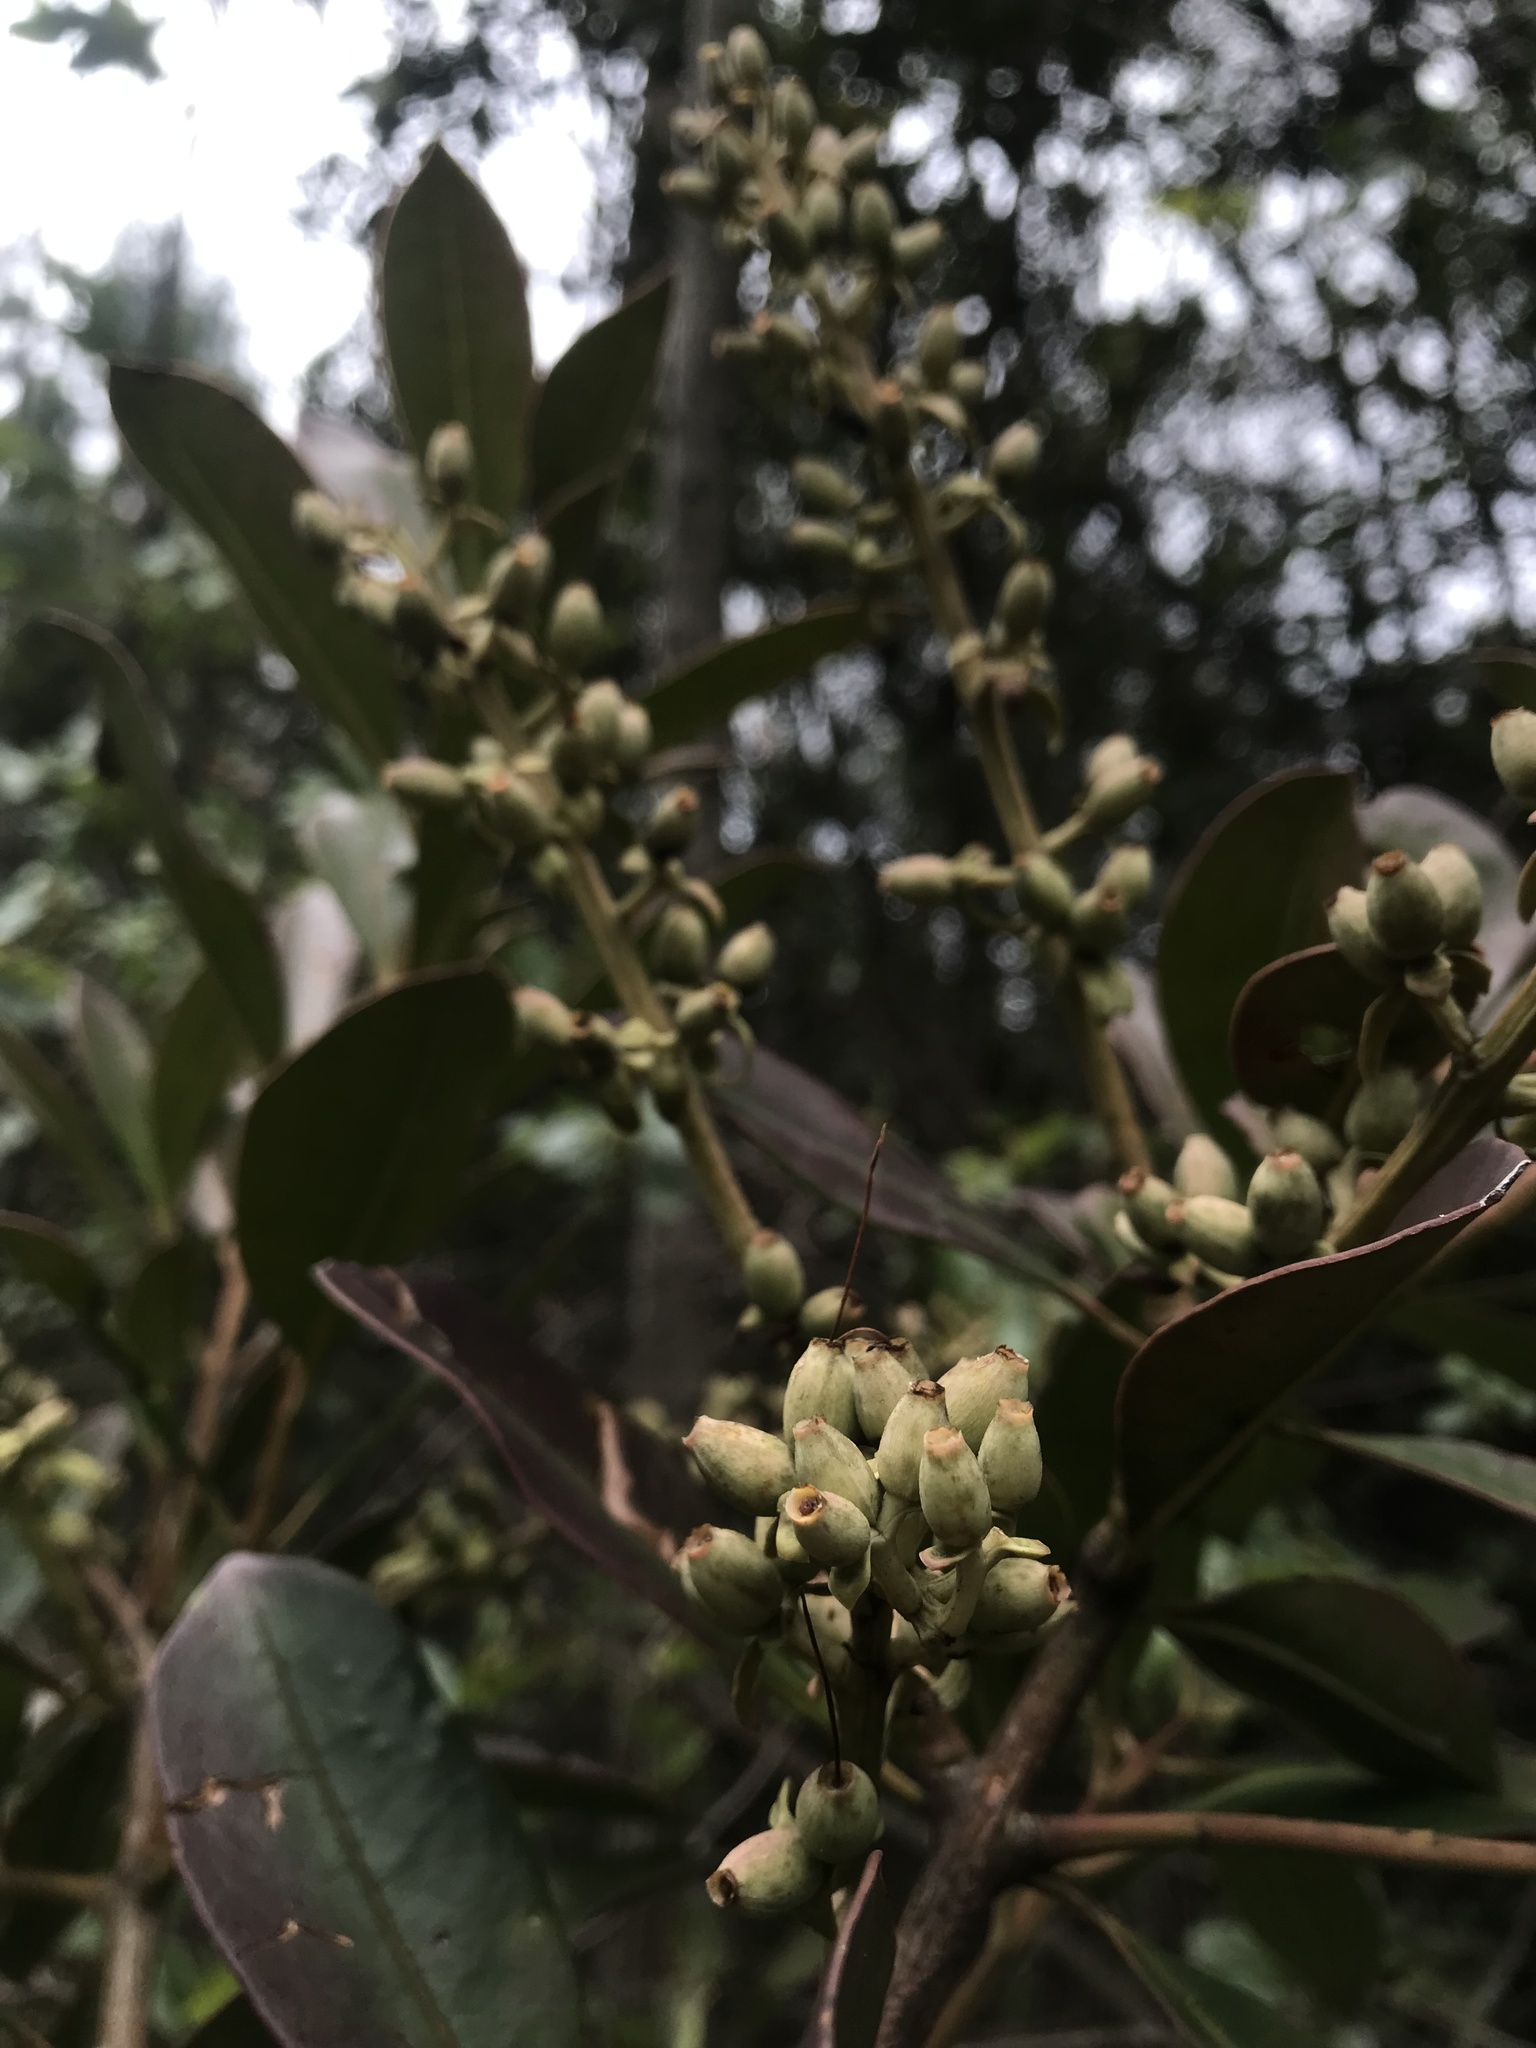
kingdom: Plantae
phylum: Tracheophyta
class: Magnoliopsida
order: Santalales
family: Loranthaceae
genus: Gaiadendron
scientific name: Gaiadendron punctatum
